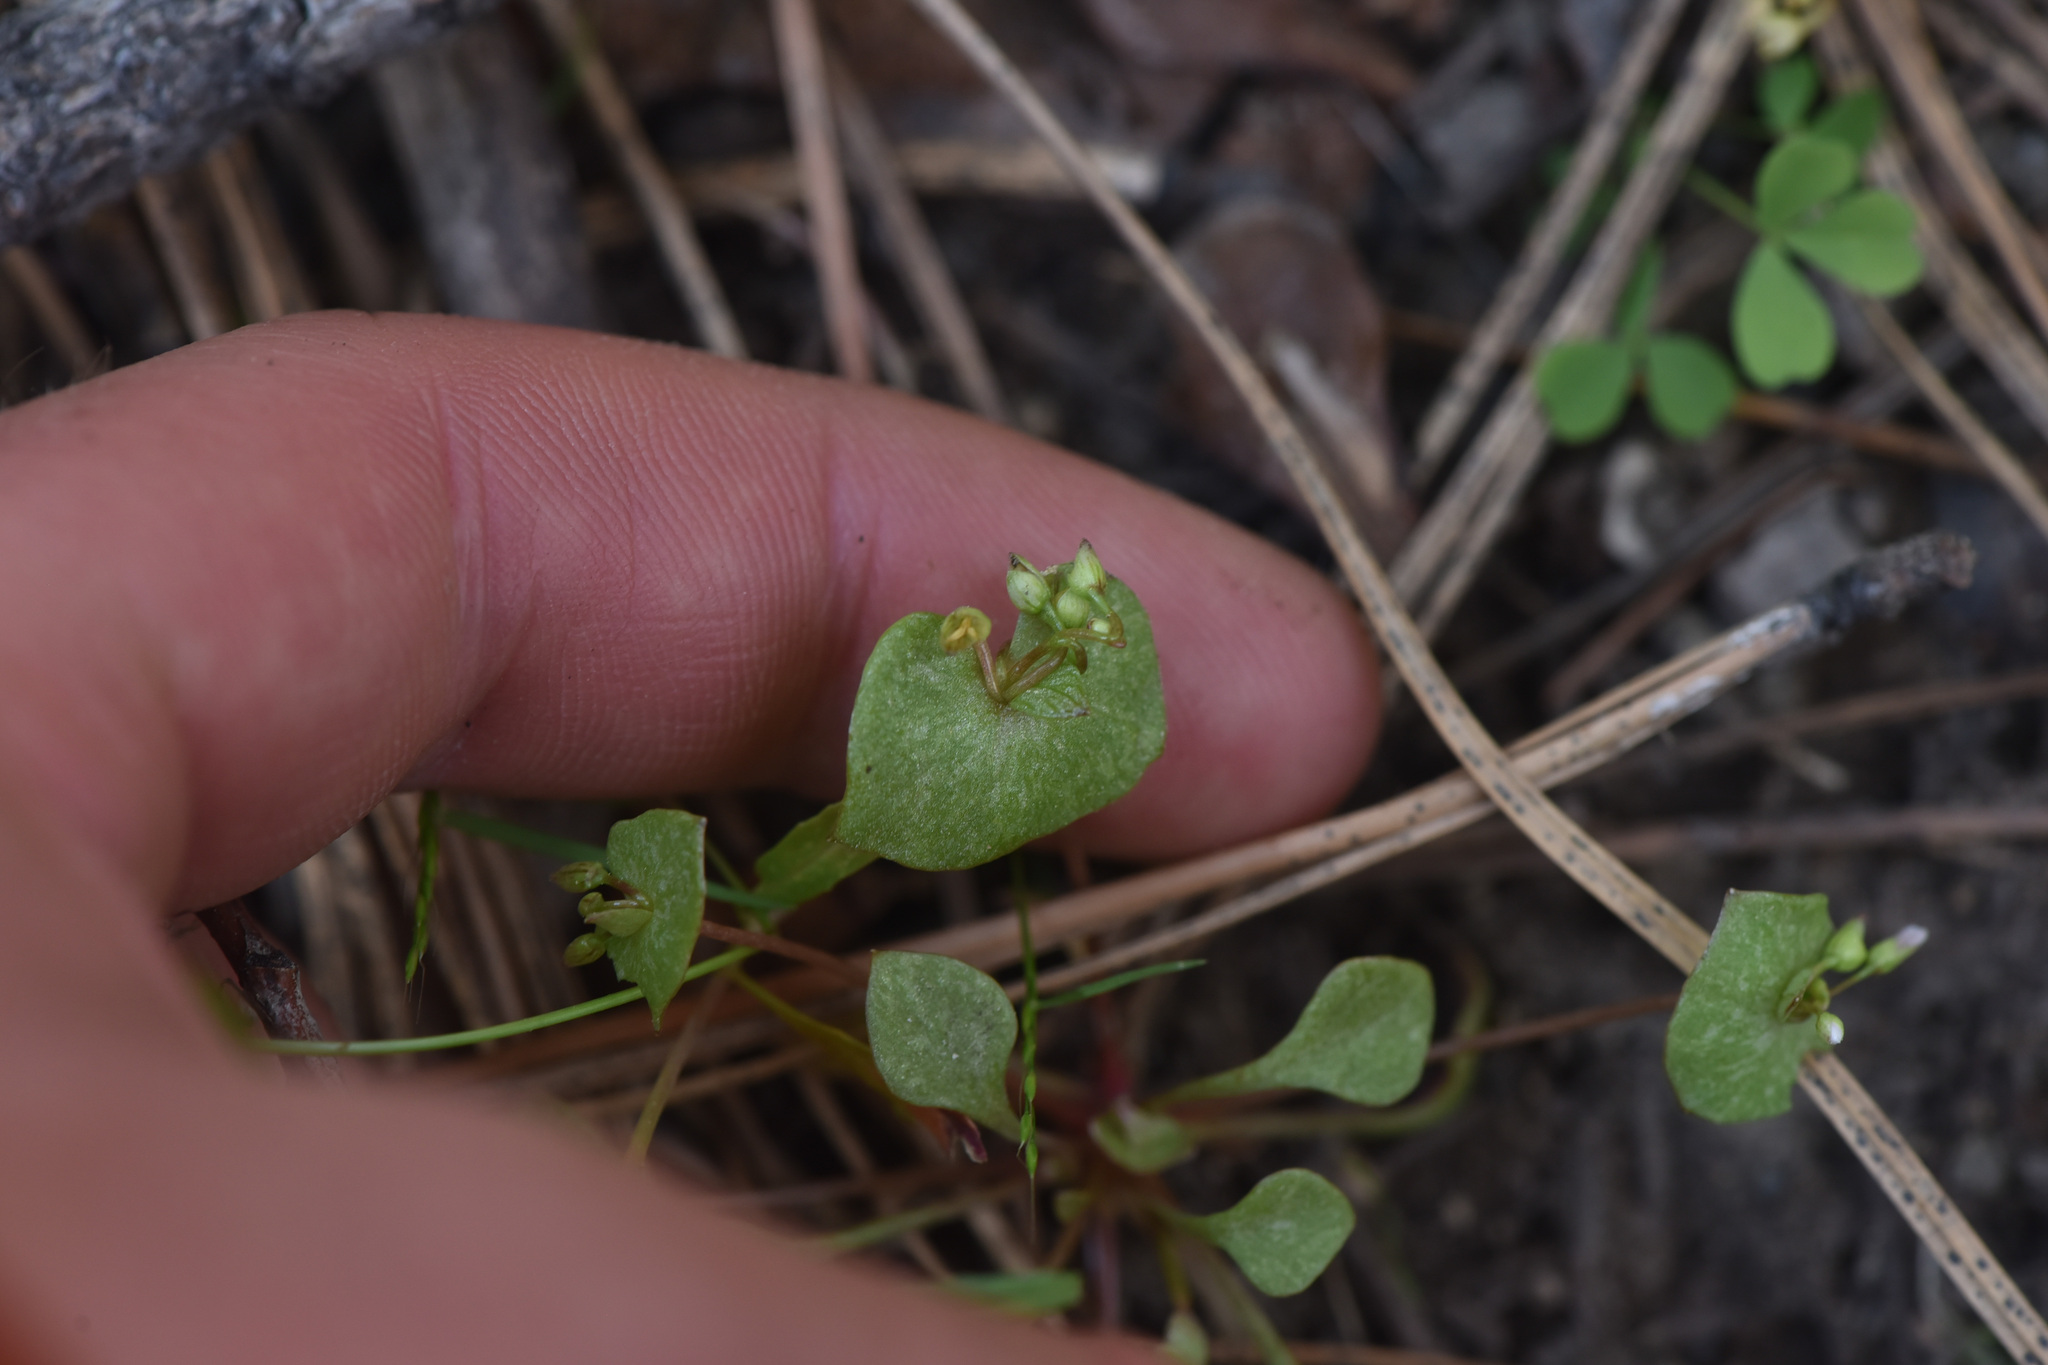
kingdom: Plantae
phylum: Tracheophyta
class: Magnoliopsida
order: Caryophyllales
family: Montiaceae
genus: Claytonia
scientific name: Claytonia rubra
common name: Erubescent miner's-lettuce
